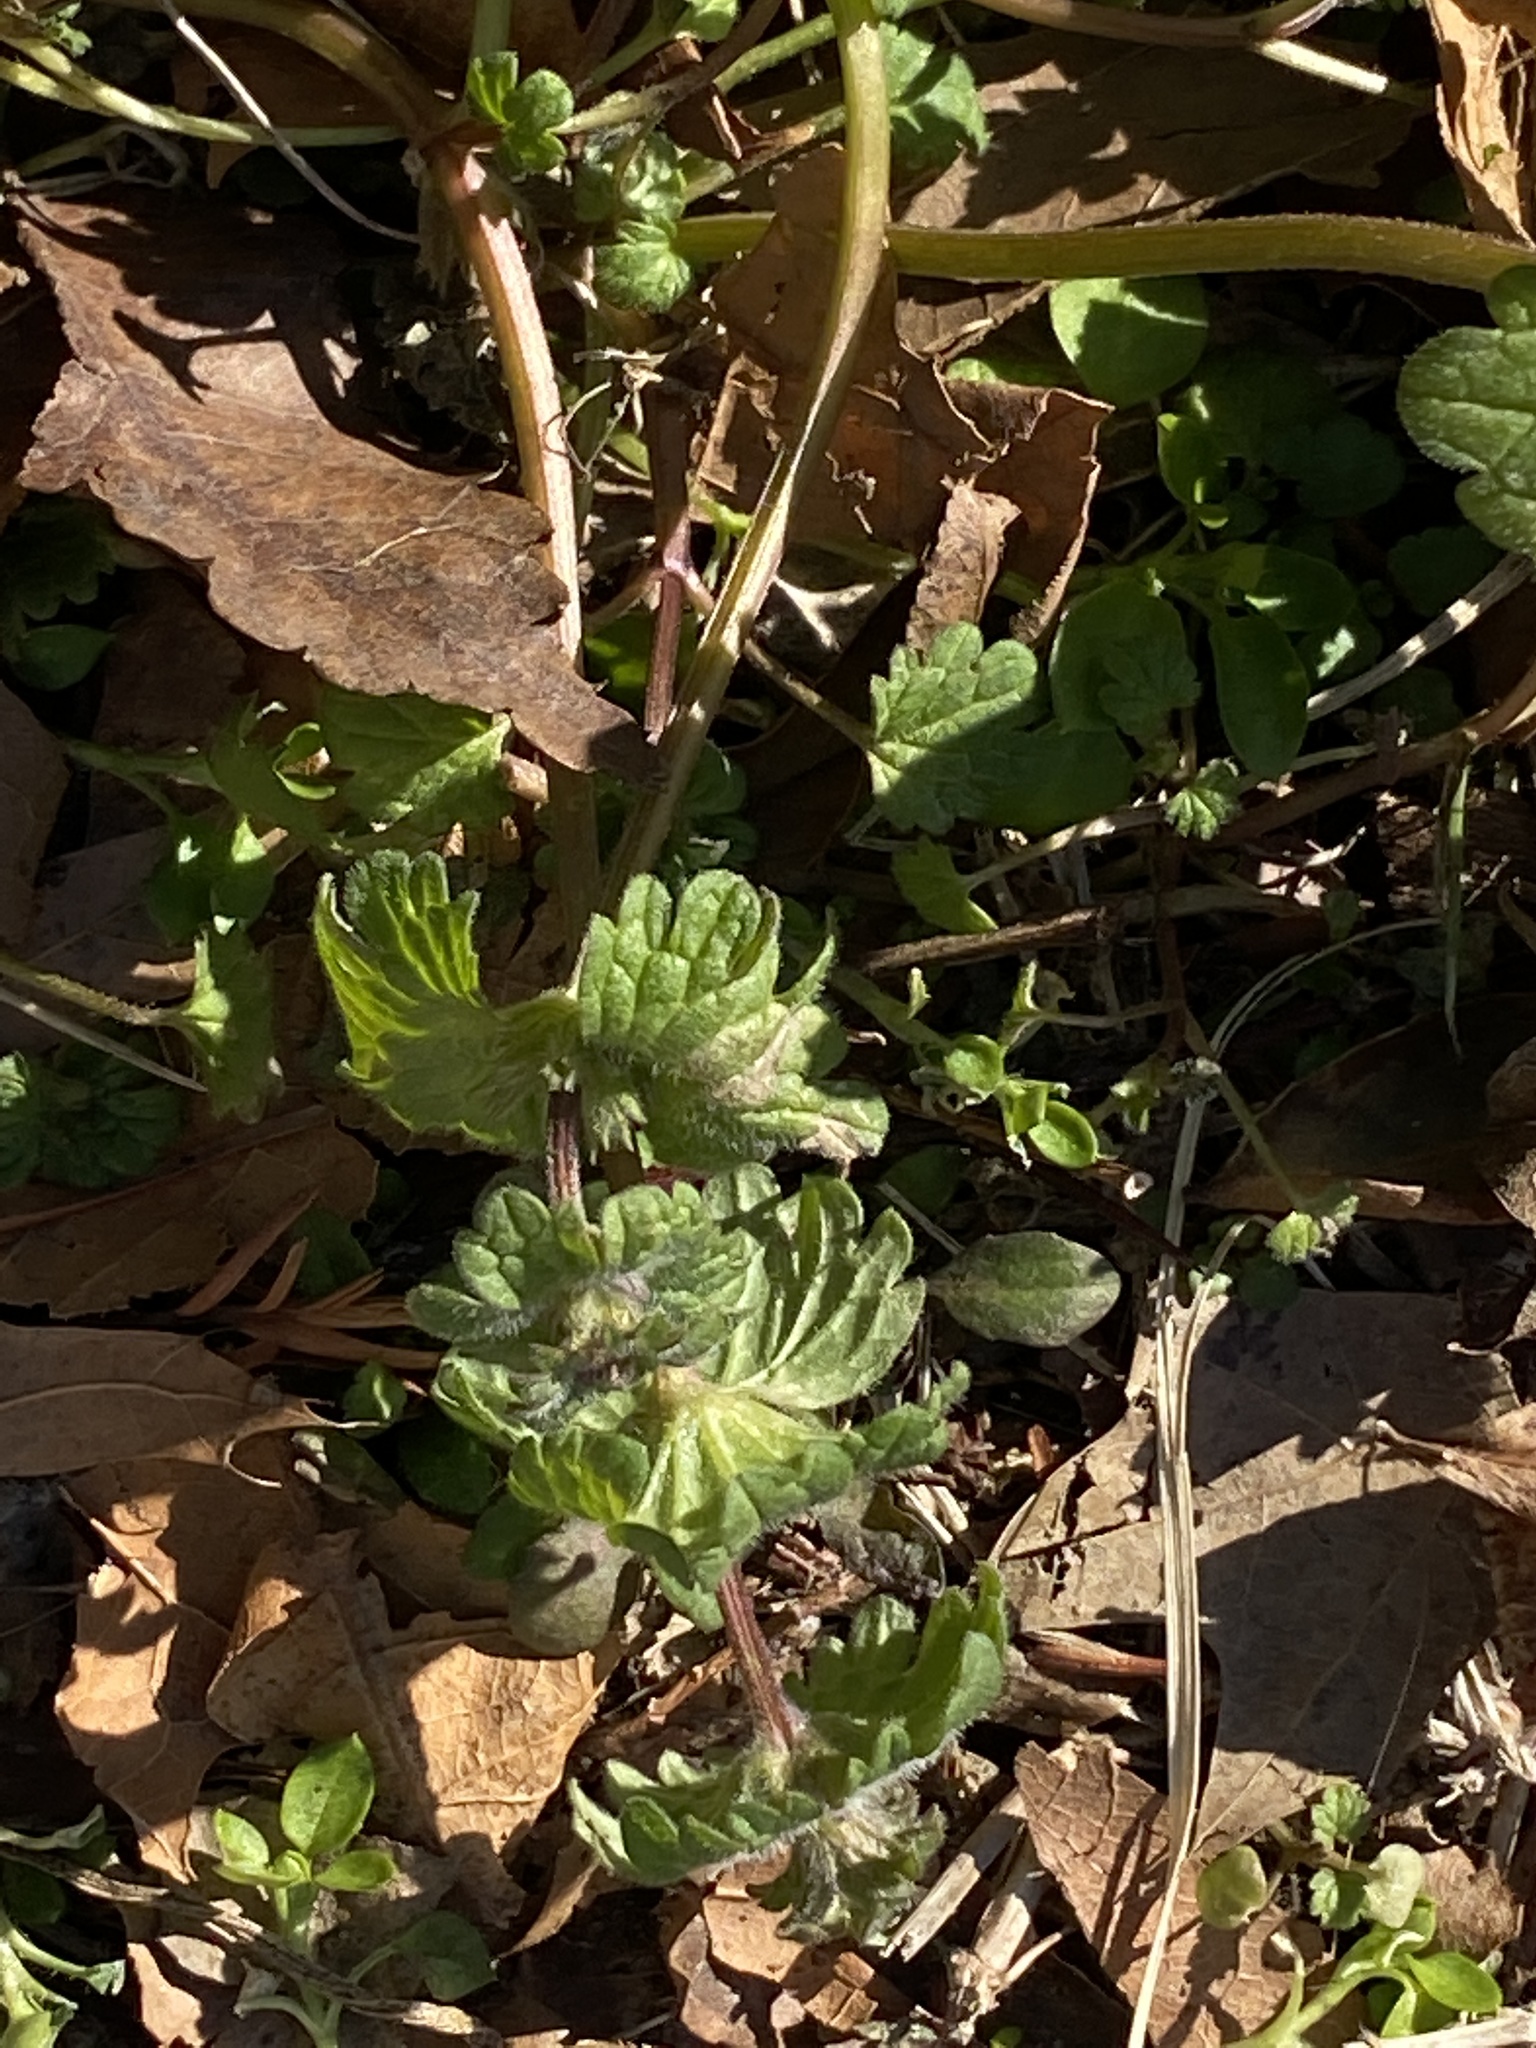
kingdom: Plantae
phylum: Tracheophyta
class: Magnoliopsida
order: Lamiales
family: Lamiaceae
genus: Lamium
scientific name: Lamium amplexicaule
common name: Henbit dead-nettle
